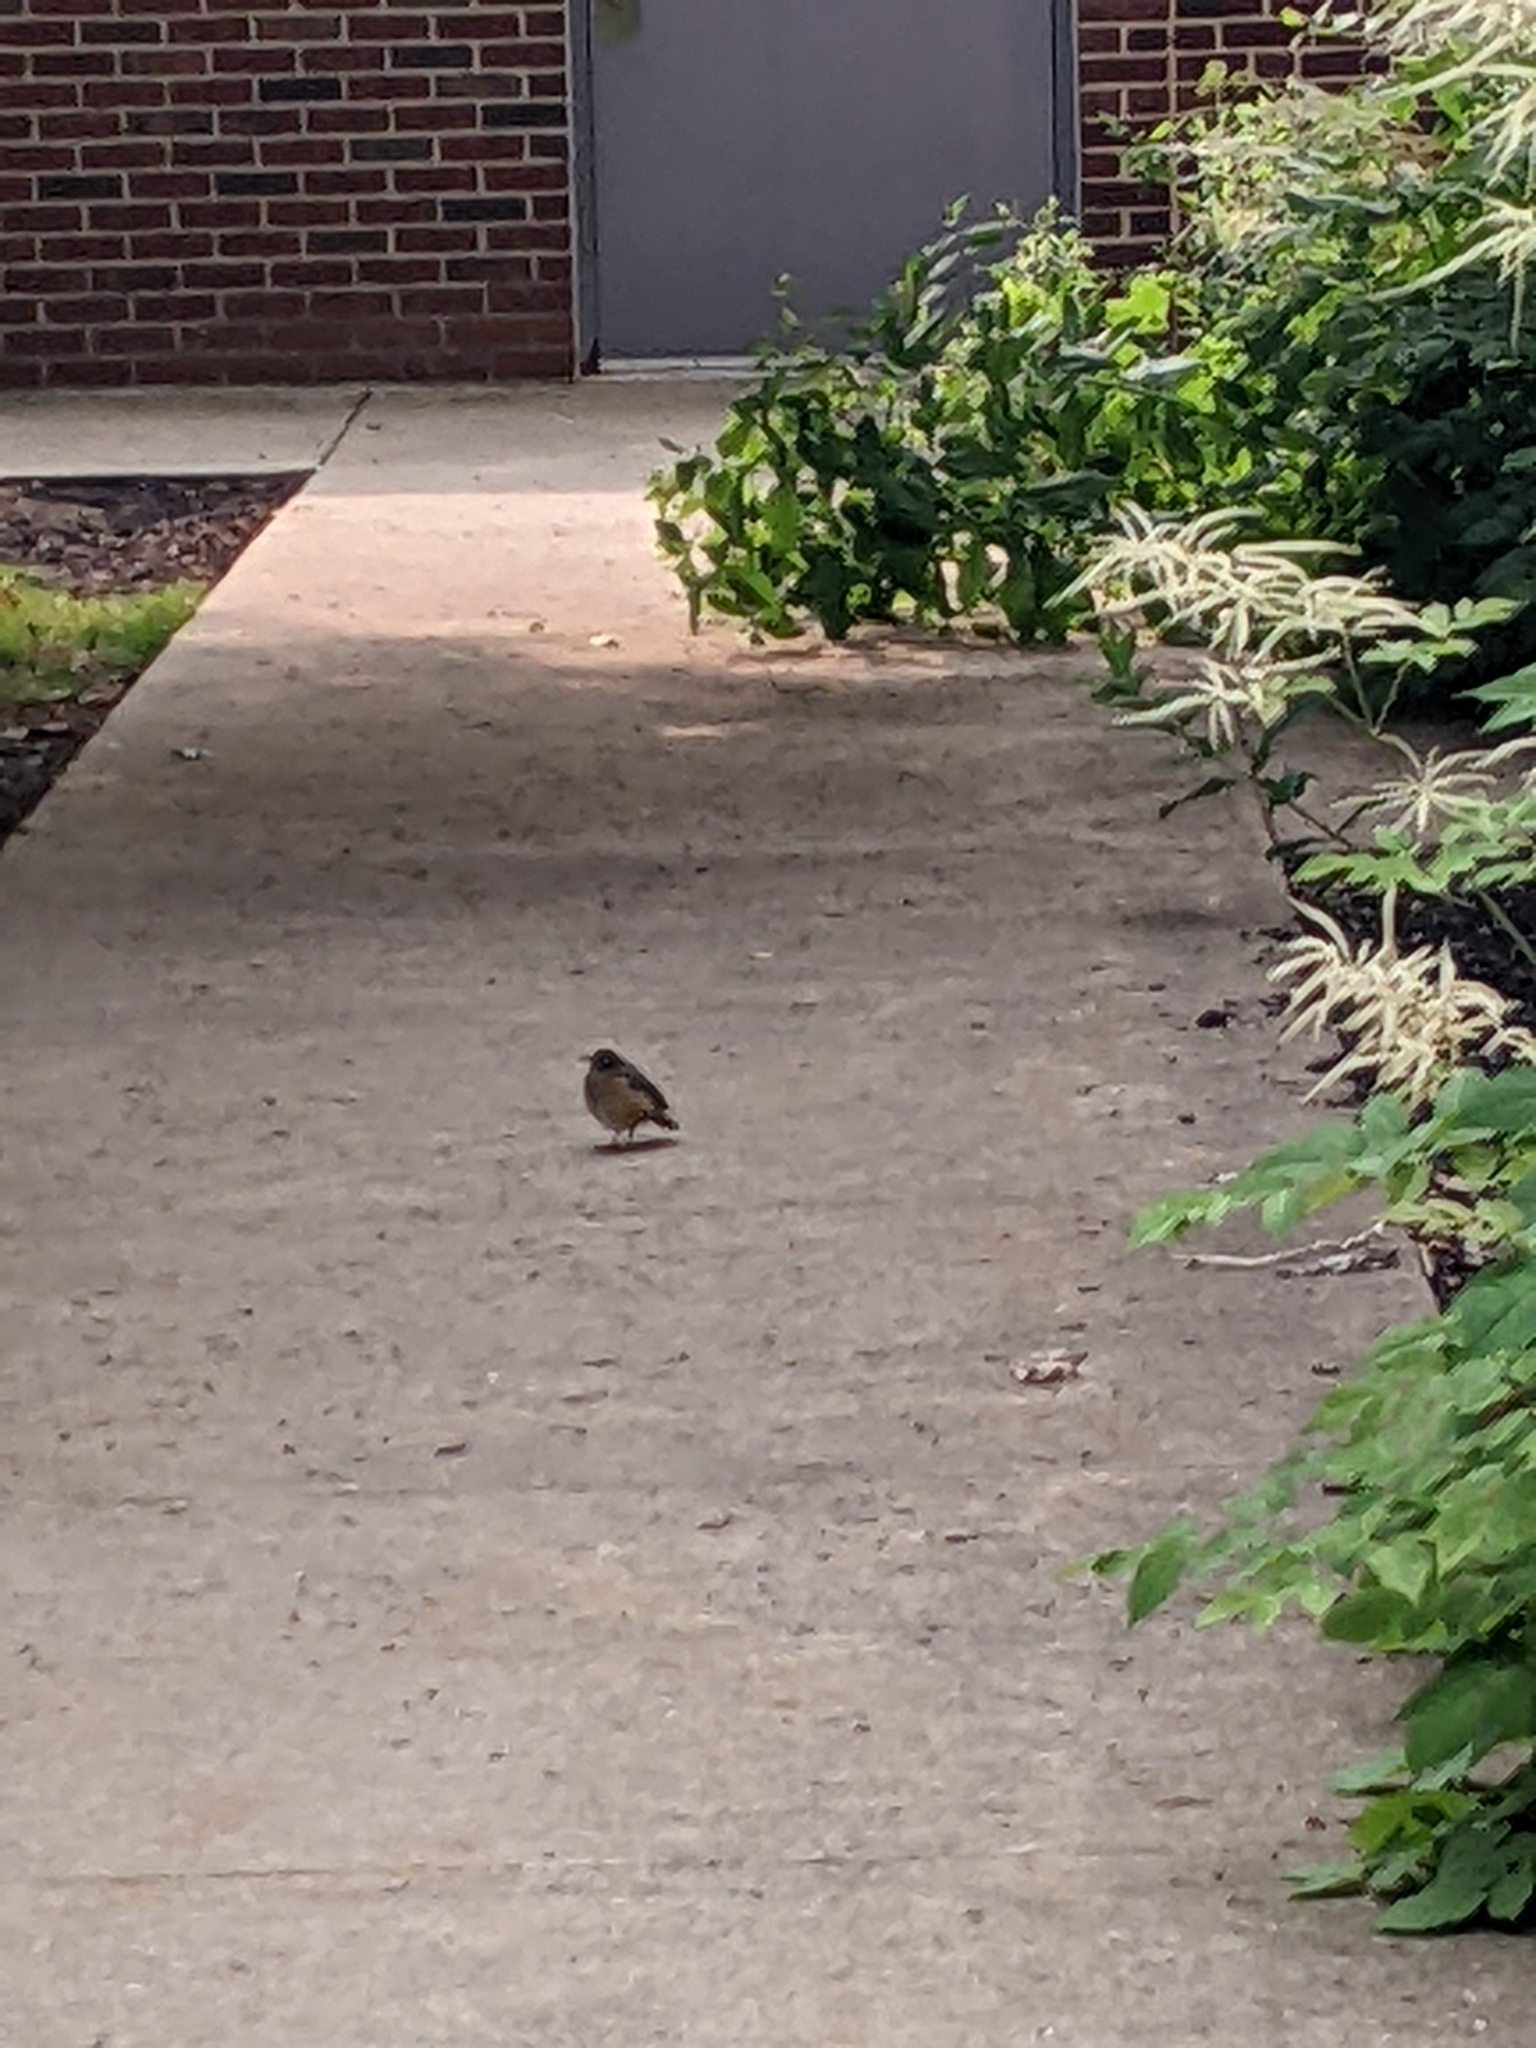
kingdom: Animalia
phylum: Chordata
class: Aves
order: Passeriformes
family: Turdidae
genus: Turdus
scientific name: Turdus migratorius
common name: American robin
